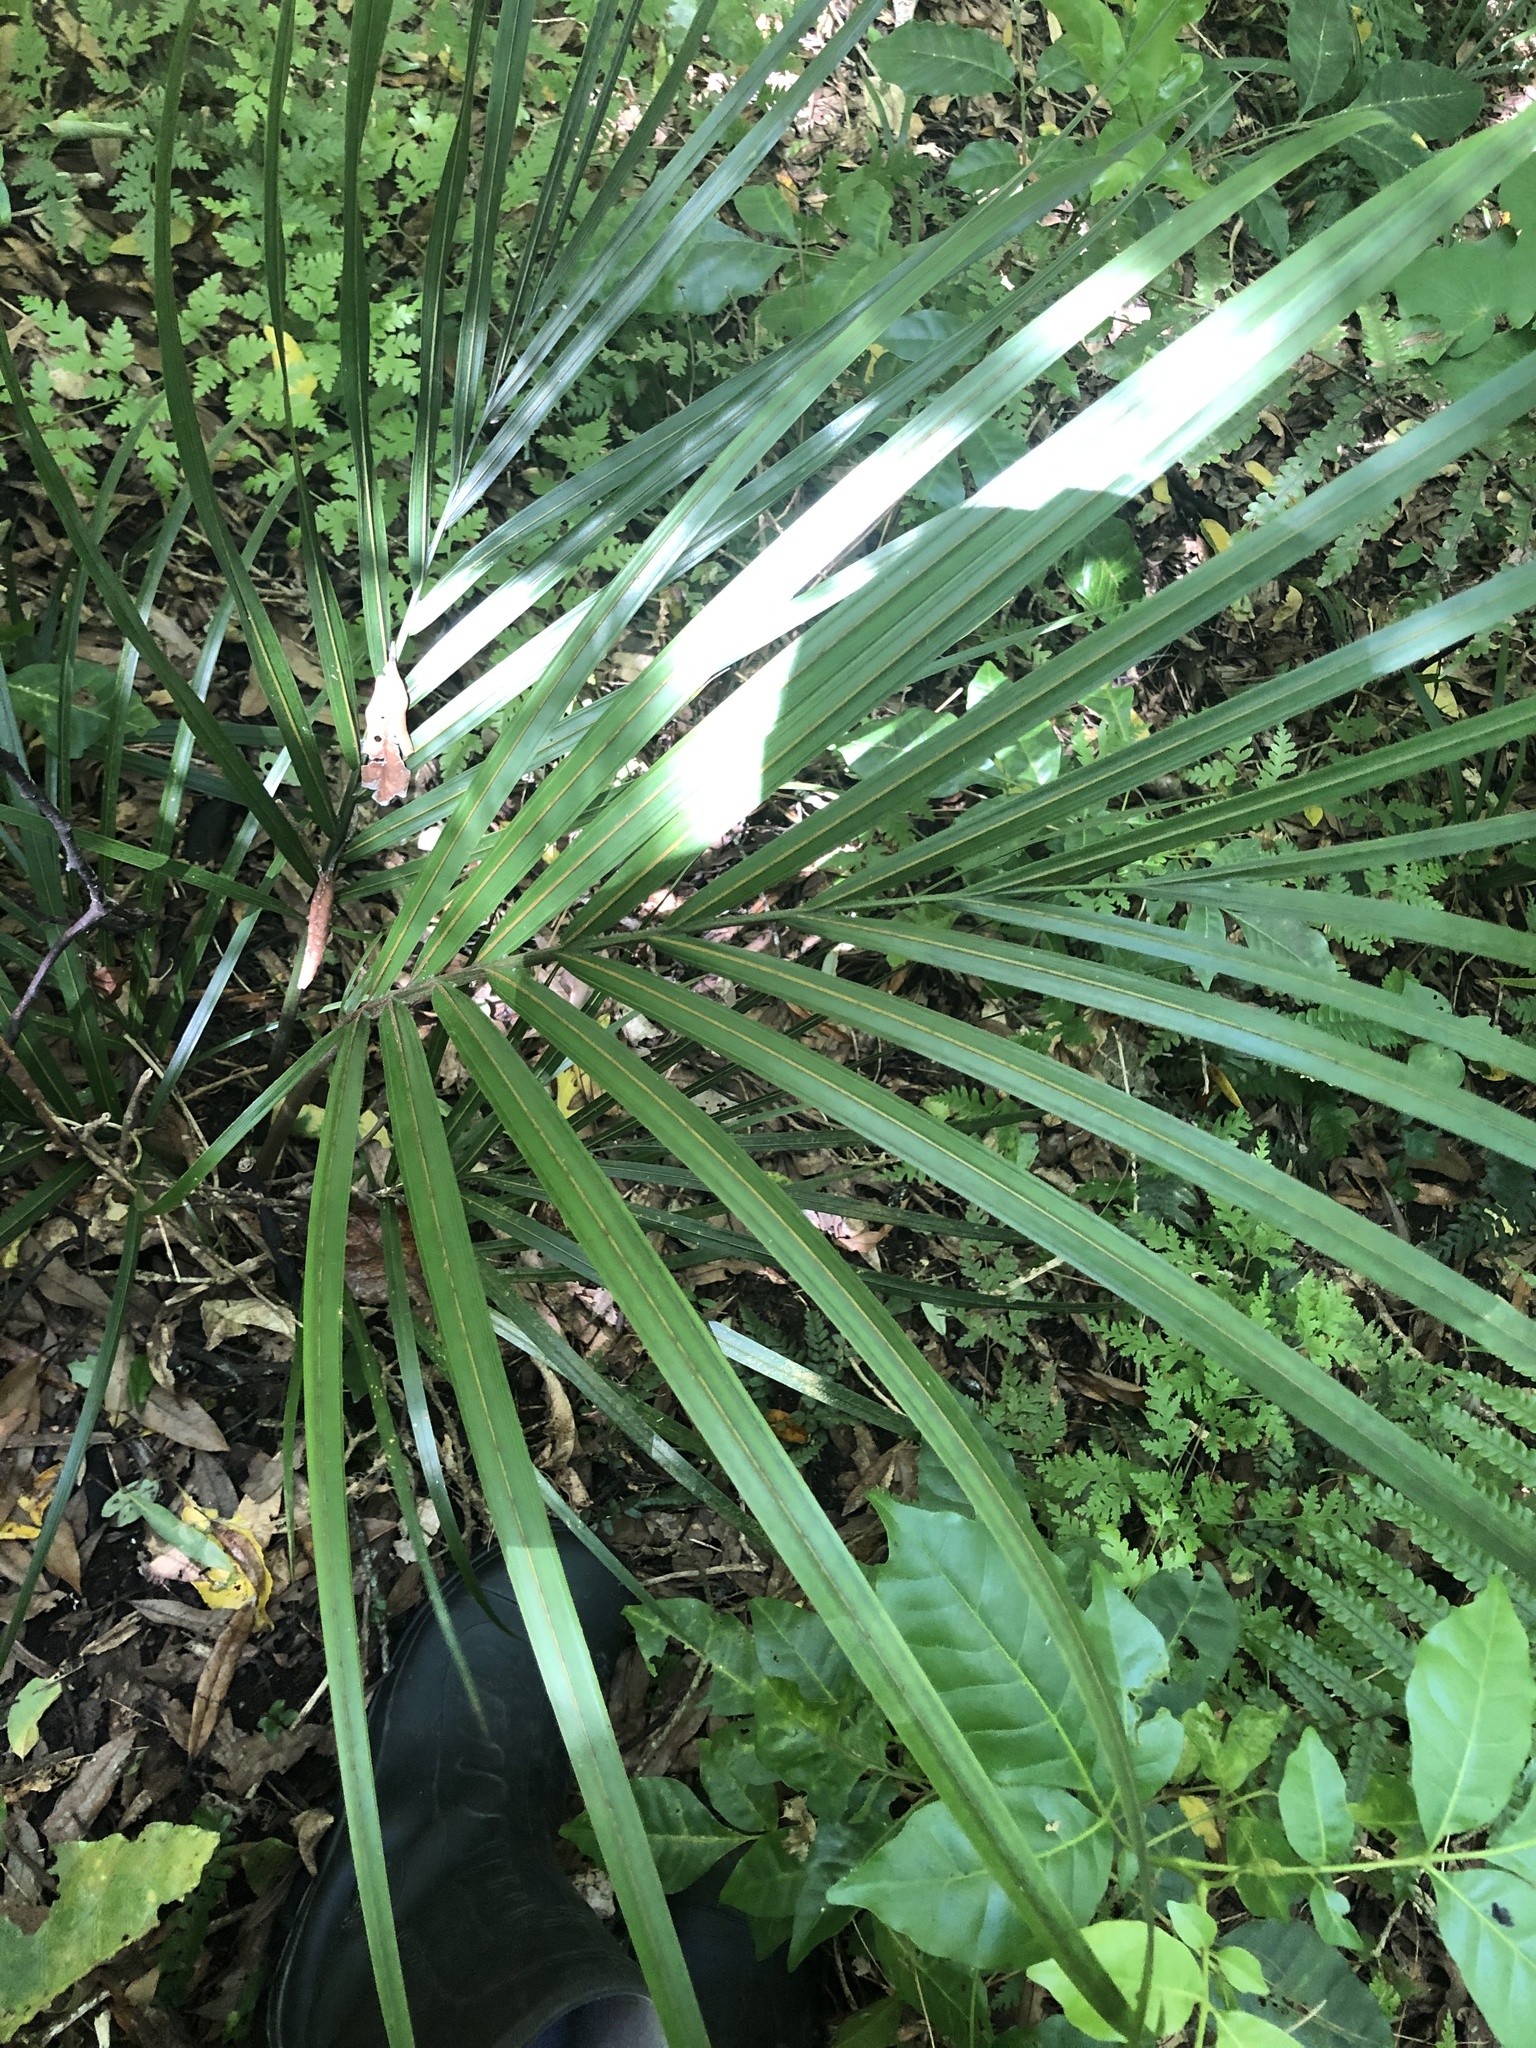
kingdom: Plantae
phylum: Tracheophyta
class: Liliopsida
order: Arecales
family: Arecaceae
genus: Rhopalostylis
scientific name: Rhopalostylis sapida
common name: Feather-duster palm
